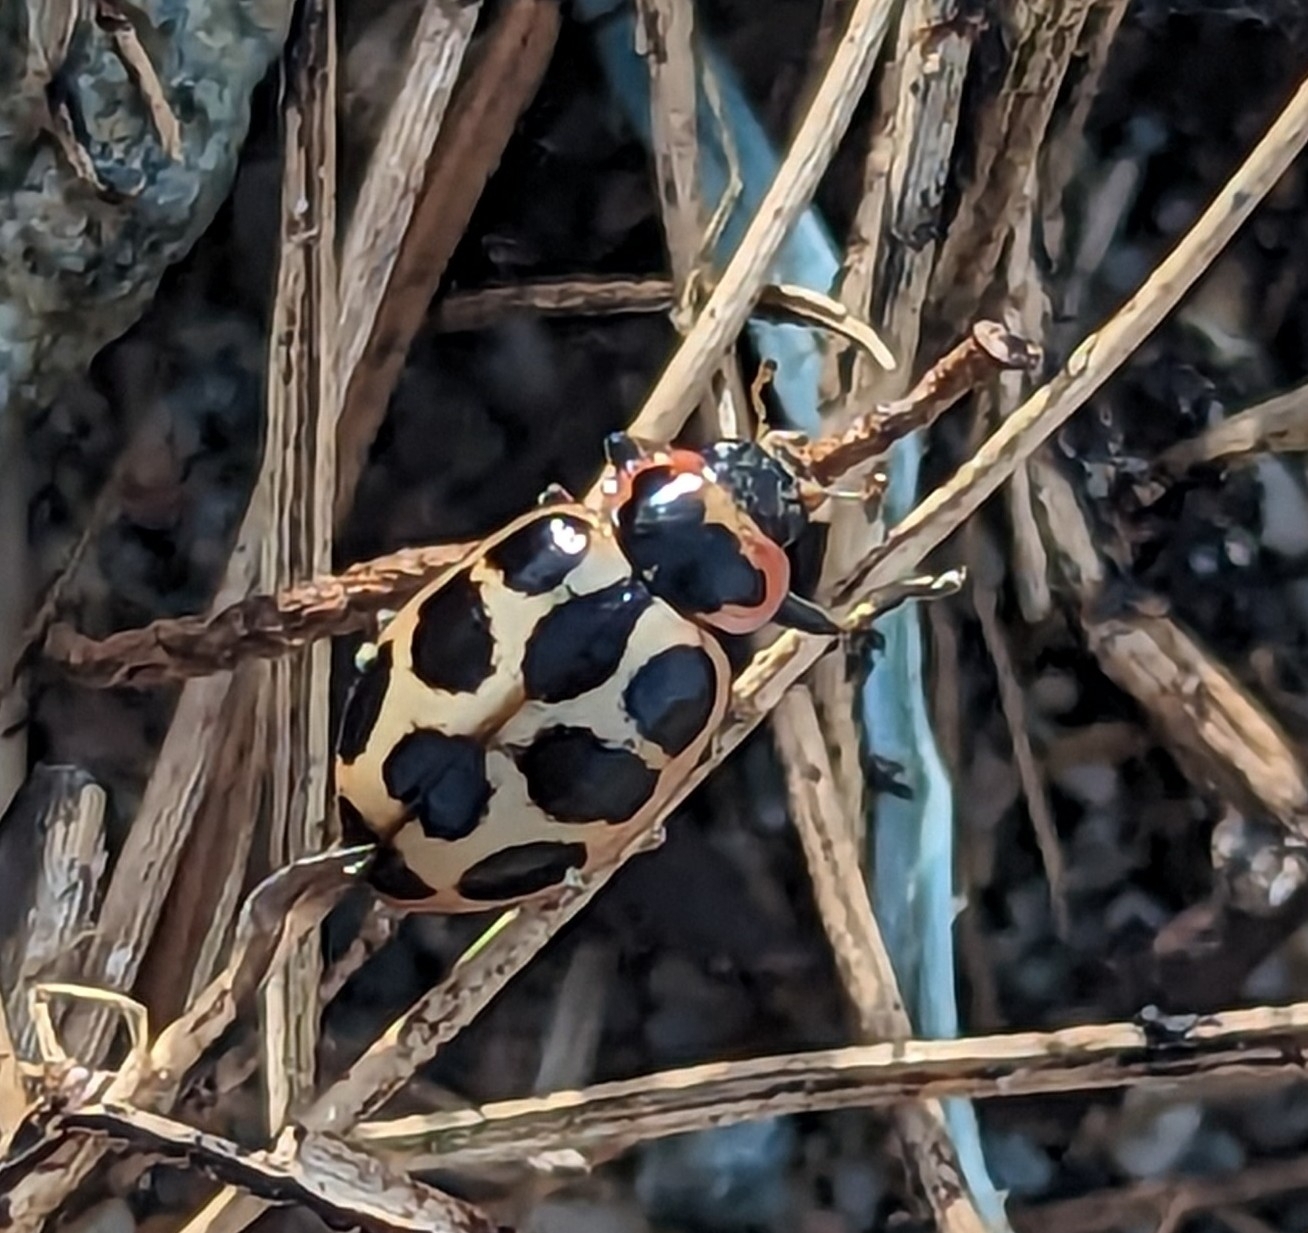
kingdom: Animalia
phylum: Arthropoda
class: Insecta
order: Coleoptera
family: Coccinellidae
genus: Naemia
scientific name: Naemia seriata
